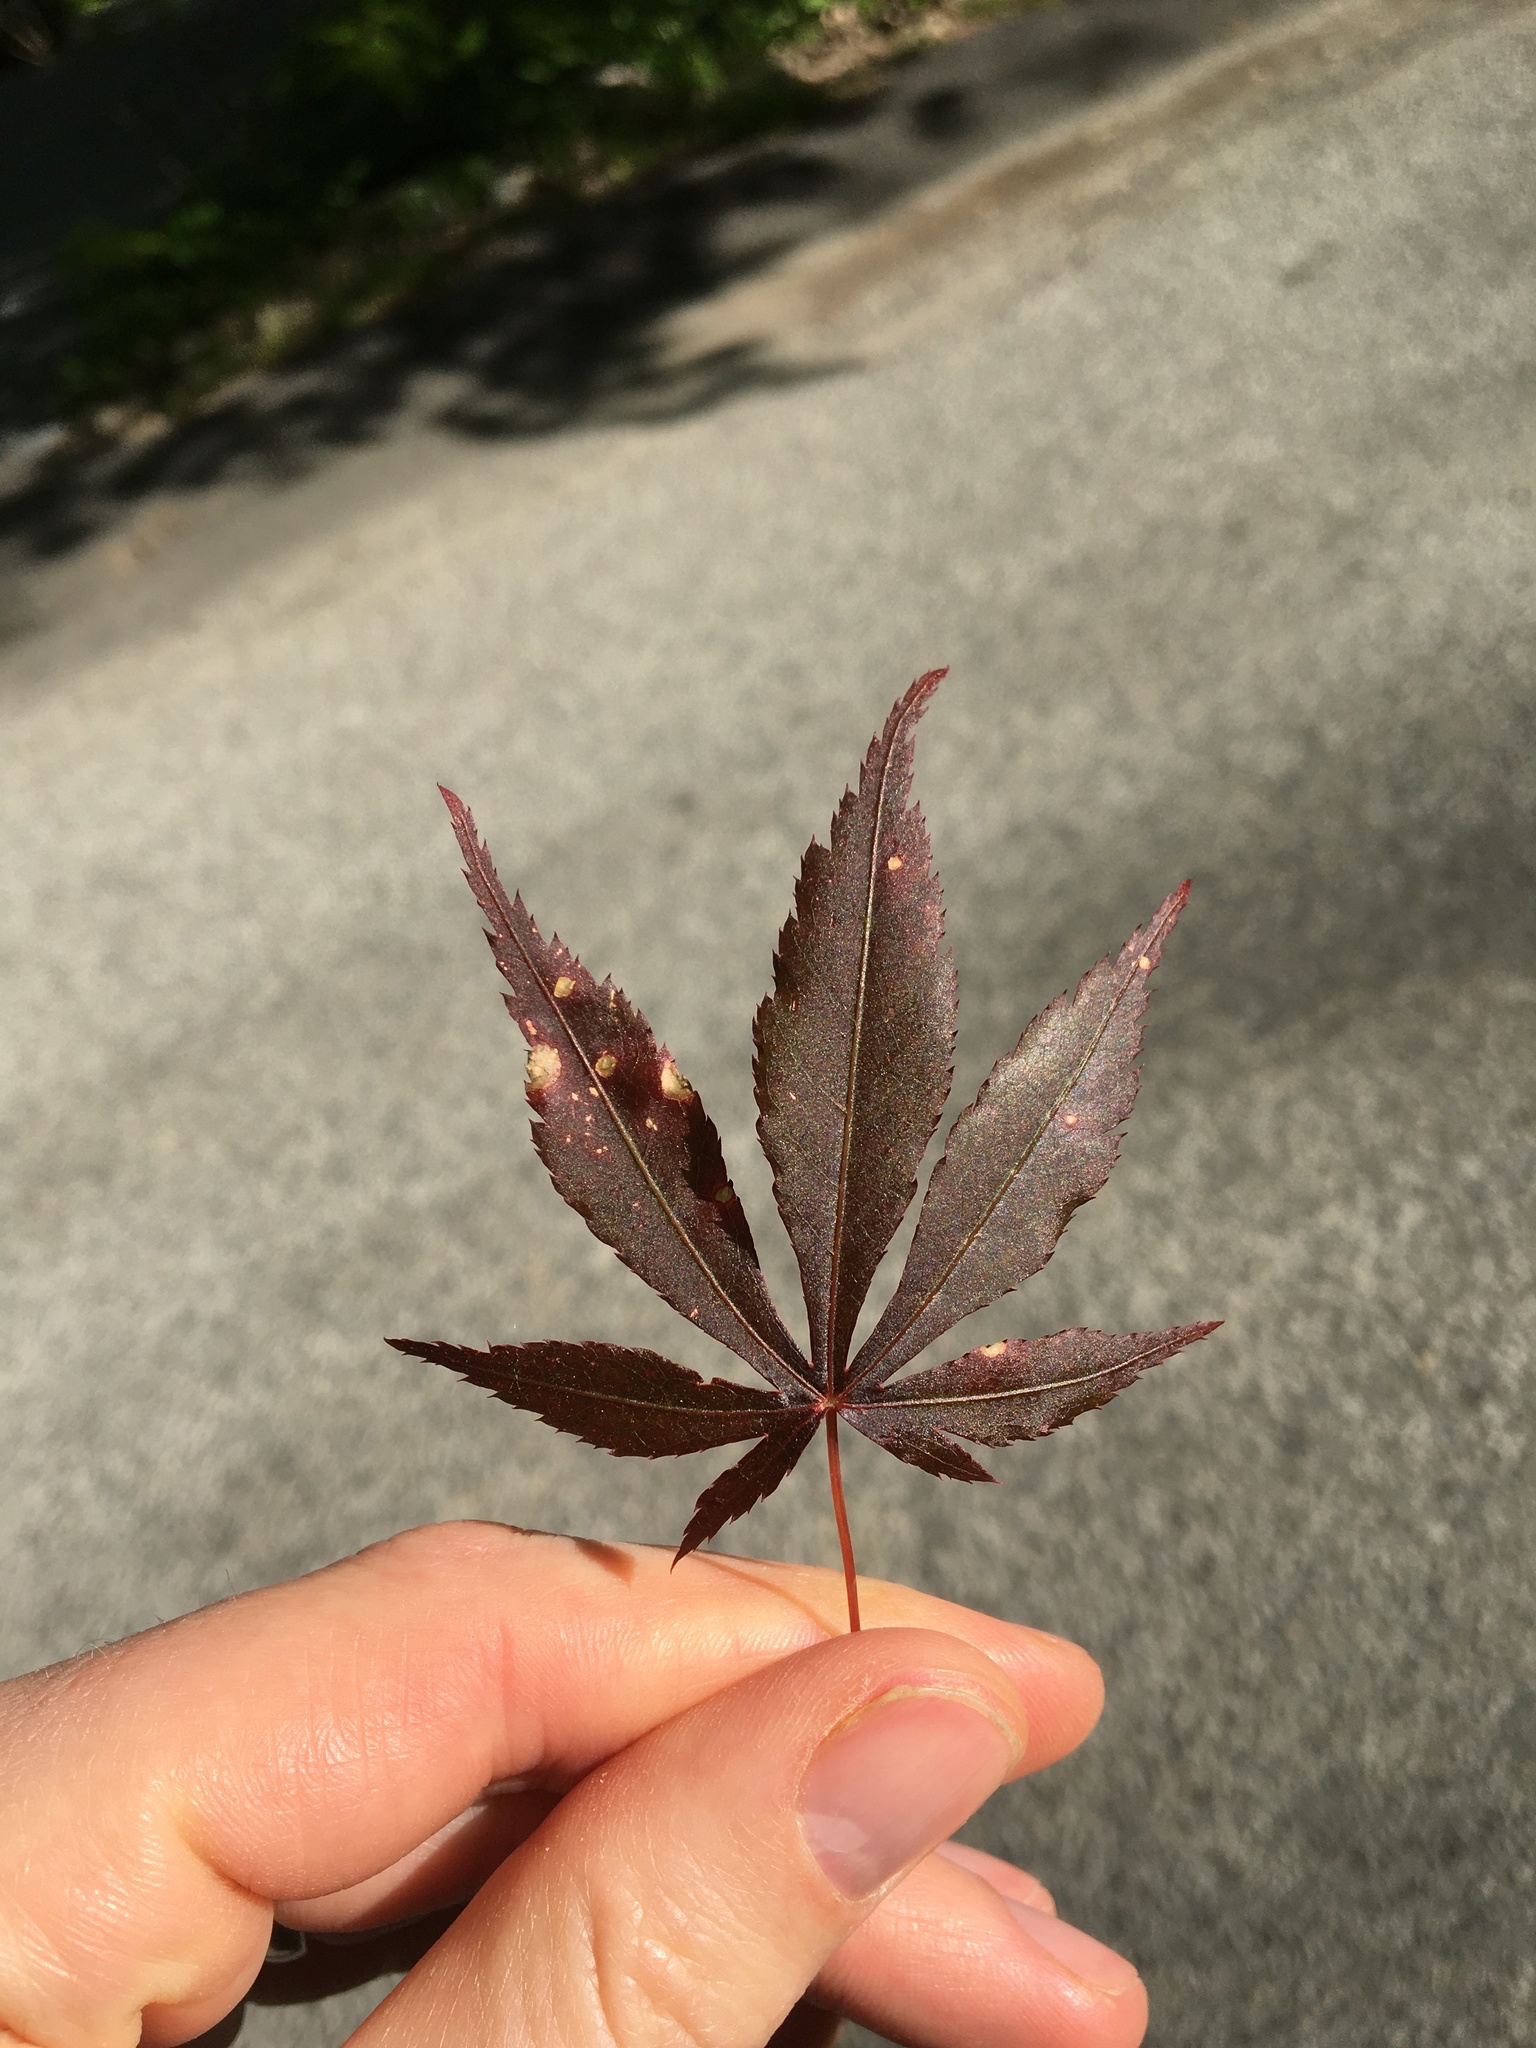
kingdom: Plantae
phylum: Tracheophyta
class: Magnoliopsida
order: Sapindales
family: Sapindaceae
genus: Acer
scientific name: Acer palmatum
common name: Japanese maple
